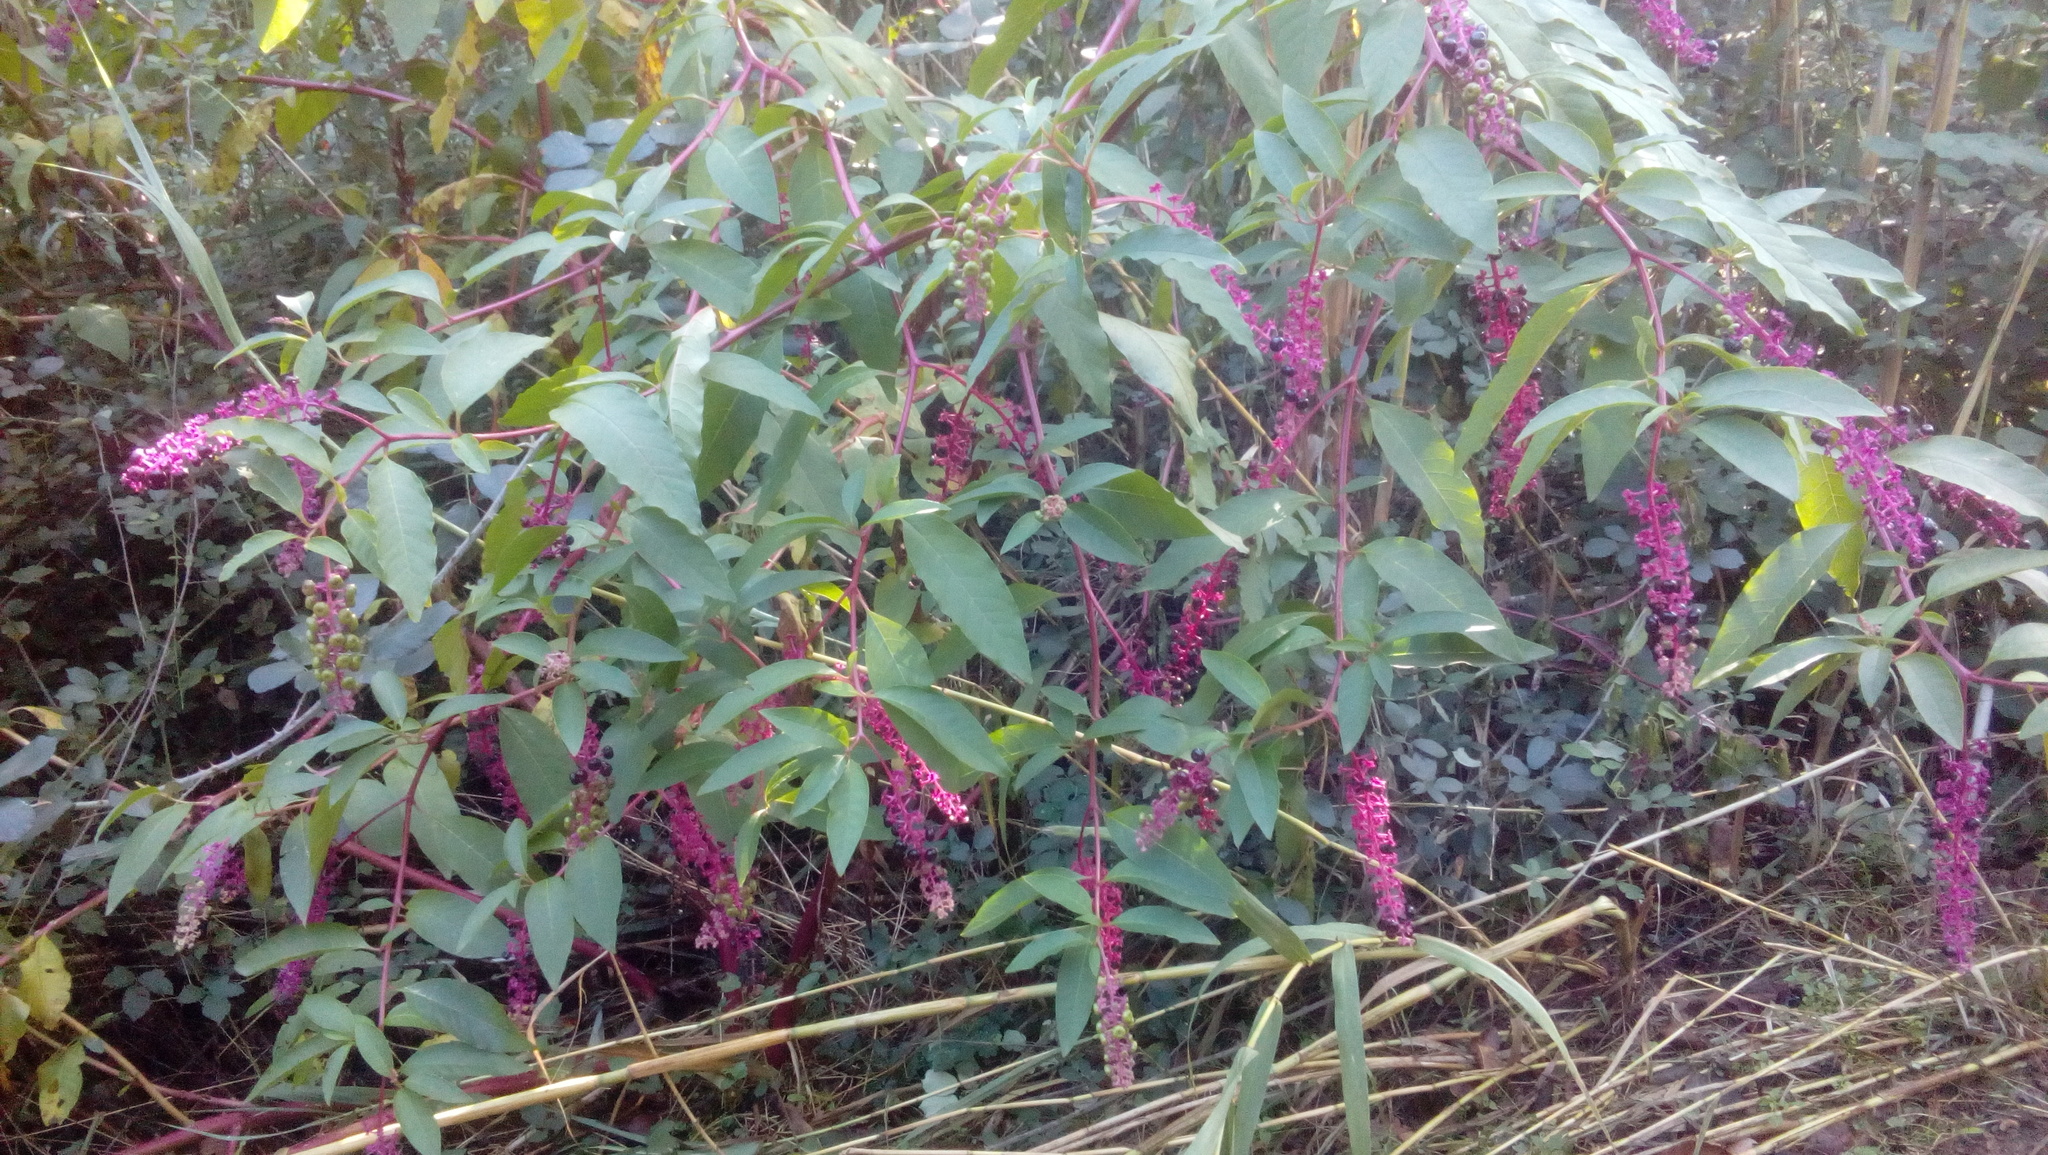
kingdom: Plantae
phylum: Tracheophyta
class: Magnoliopsida
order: Caryophyllales
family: Phytolaccaceae
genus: Phytolacca
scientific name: Phytolacca americana
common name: American pokeweed
